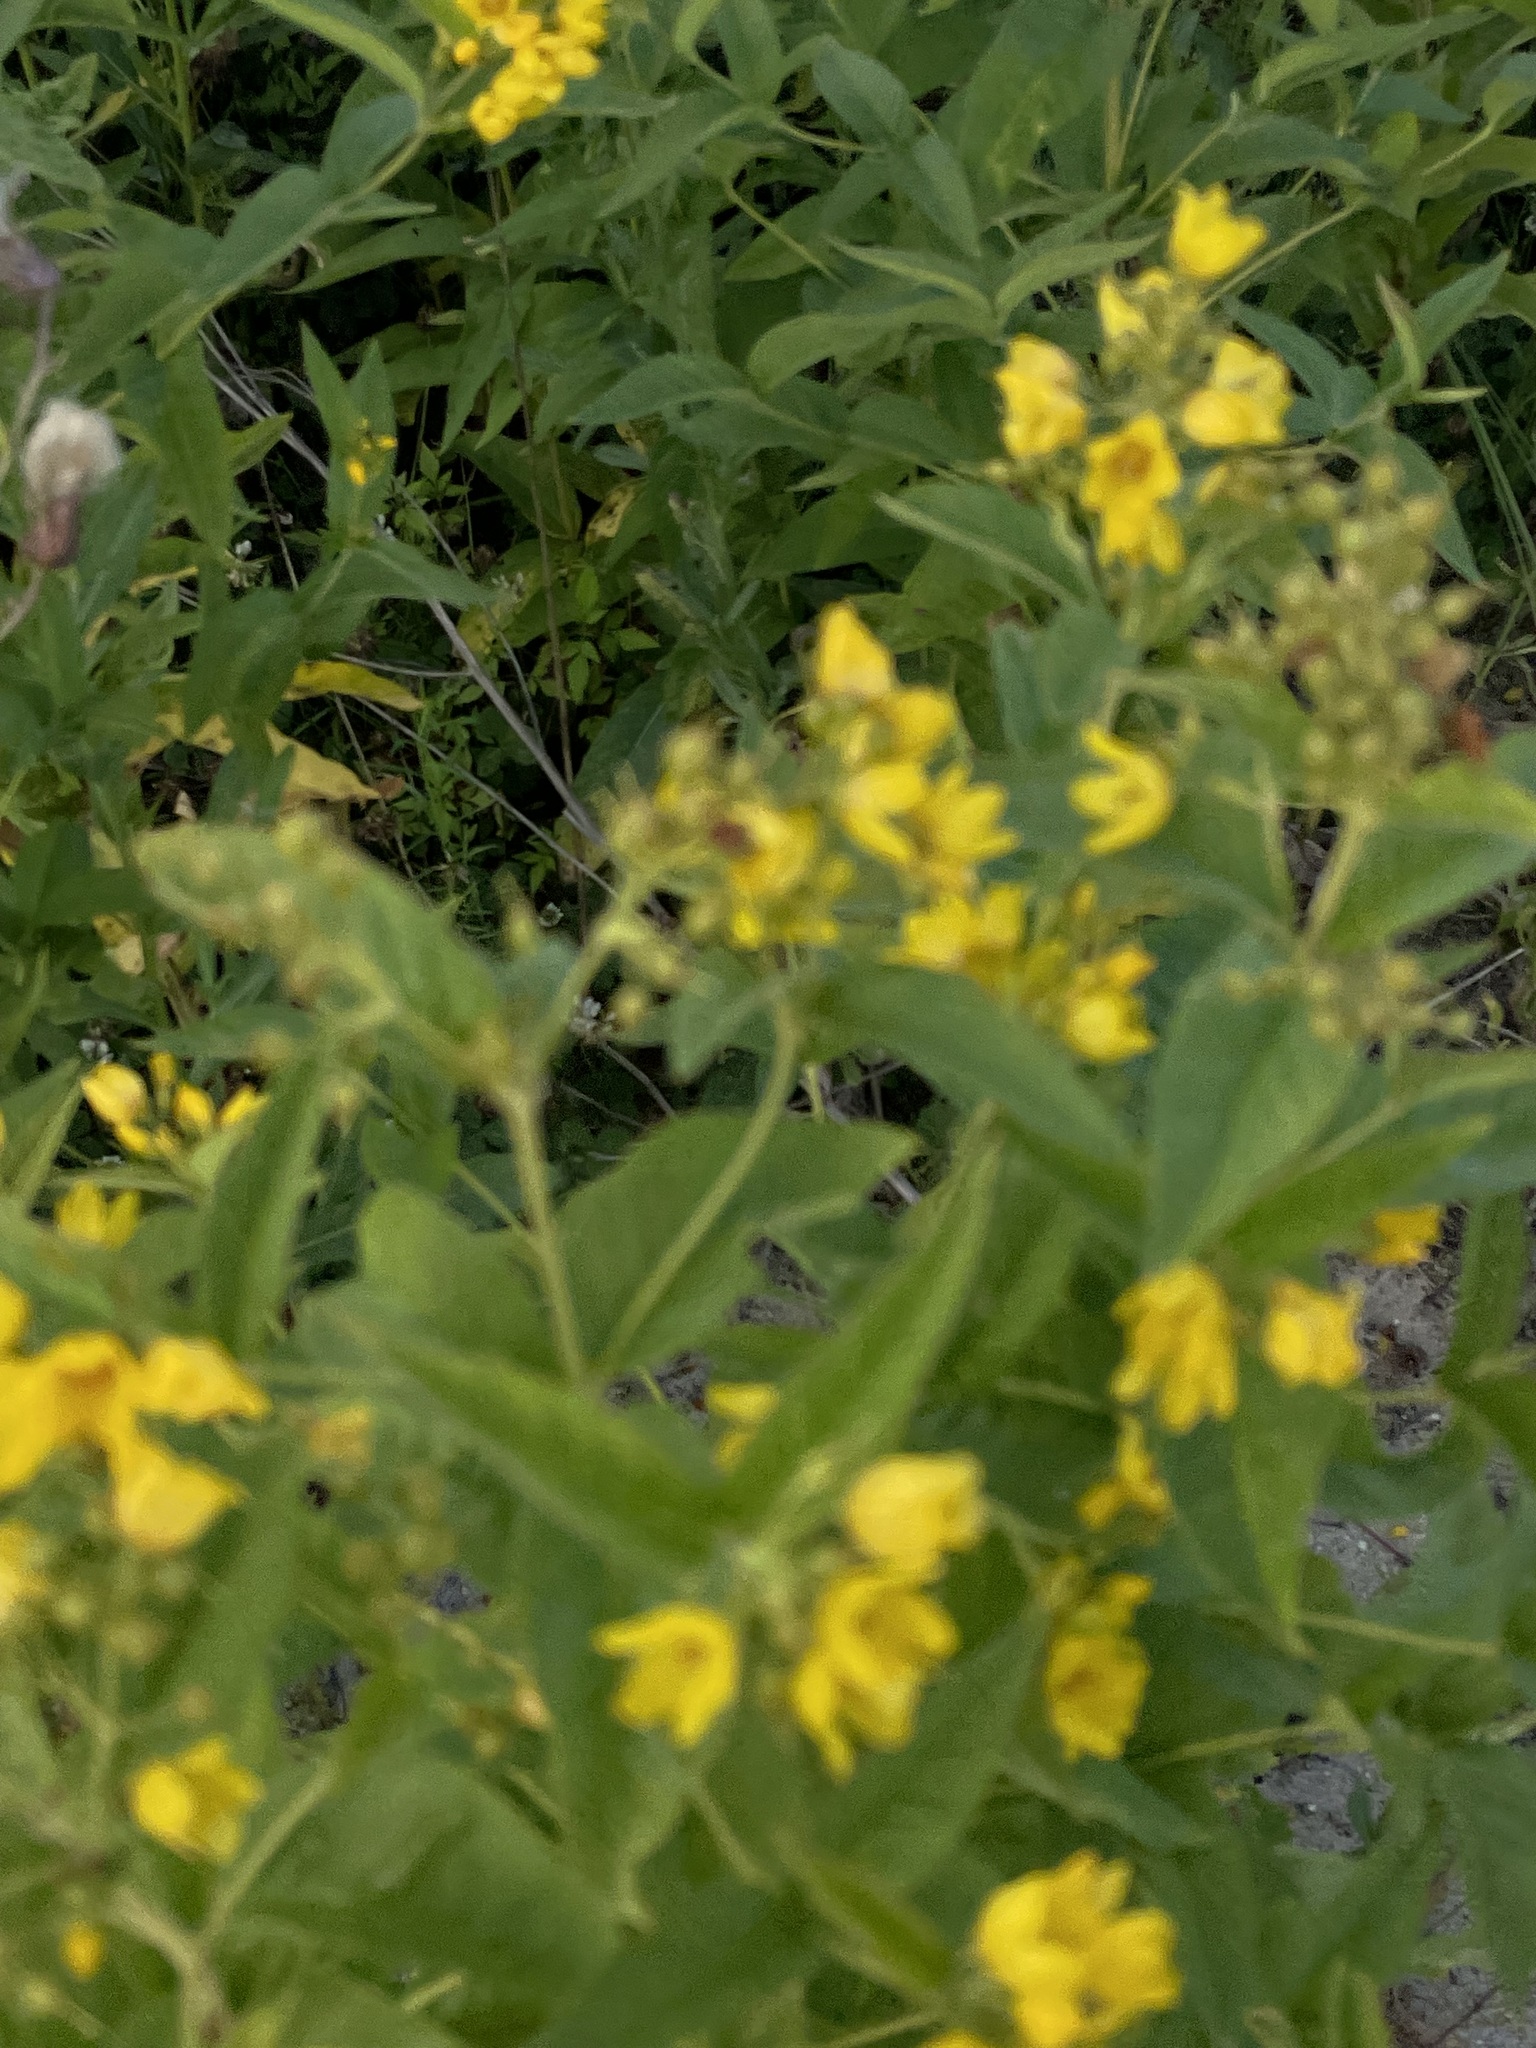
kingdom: Plantae
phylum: Tracheophyta
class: Magnoliopsida
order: Ericales
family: Primulaceae
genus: Lysimachia
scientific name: Lysimachia vulgaris
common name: Yellow loosestrife
